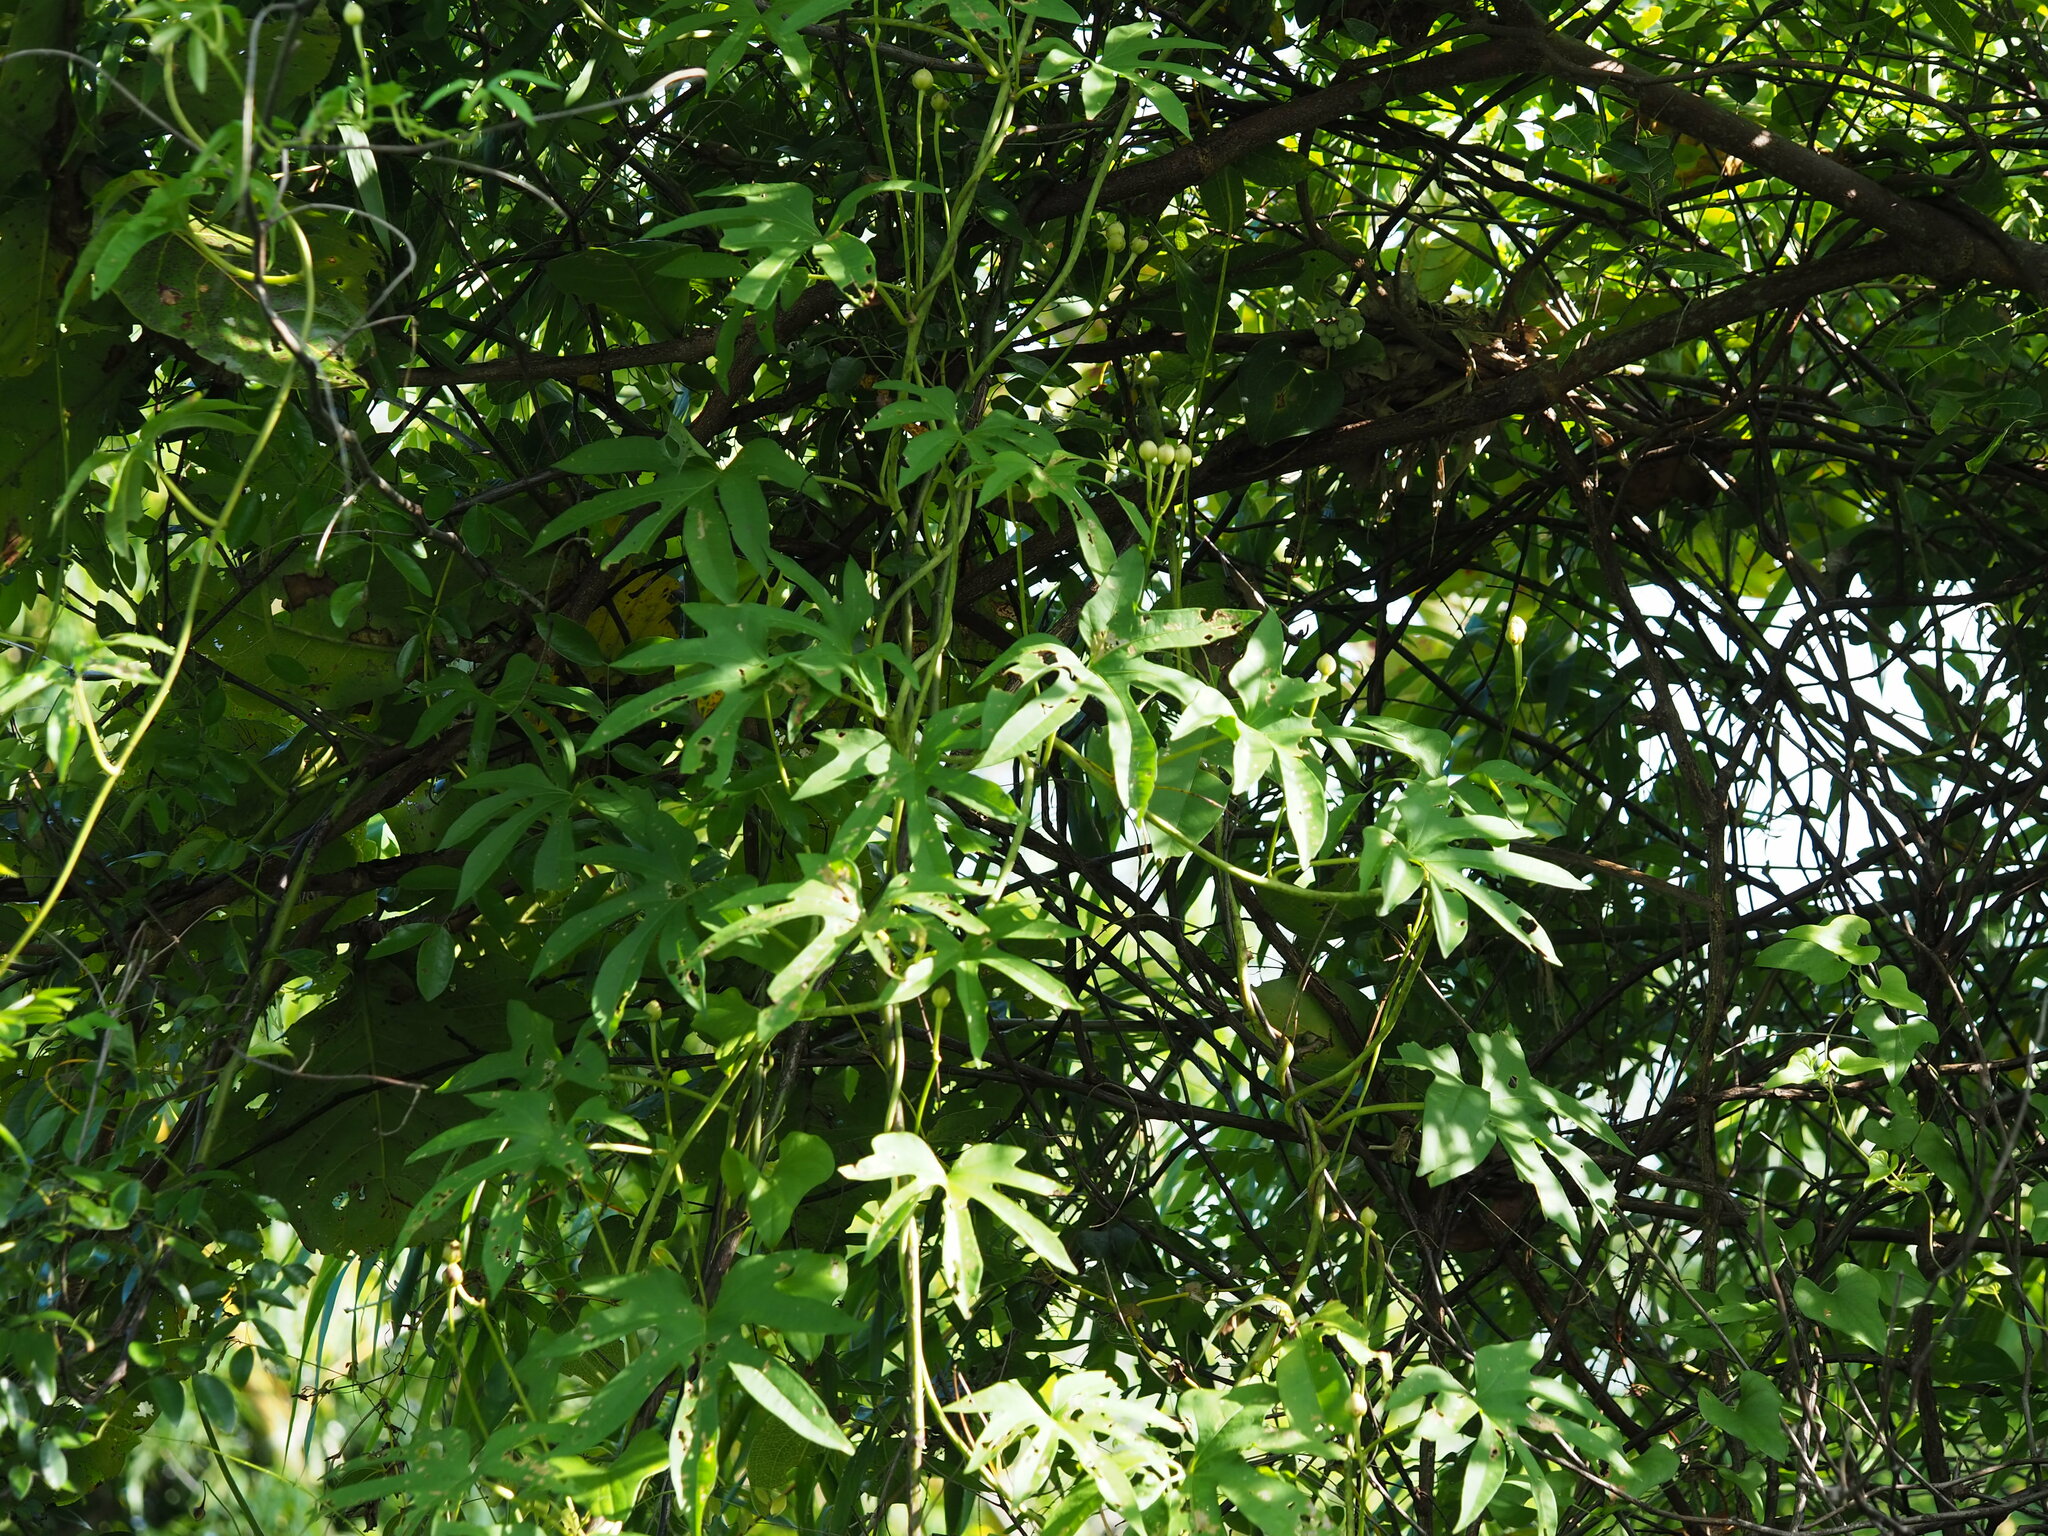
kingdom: Plantae
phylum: Tracheophyta
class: Magnoliopsida
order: Solanales
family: Convolvulaceae
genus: Ipomoea
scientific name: Ipomoea mauritiana
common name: Mauritanian convolvulus
